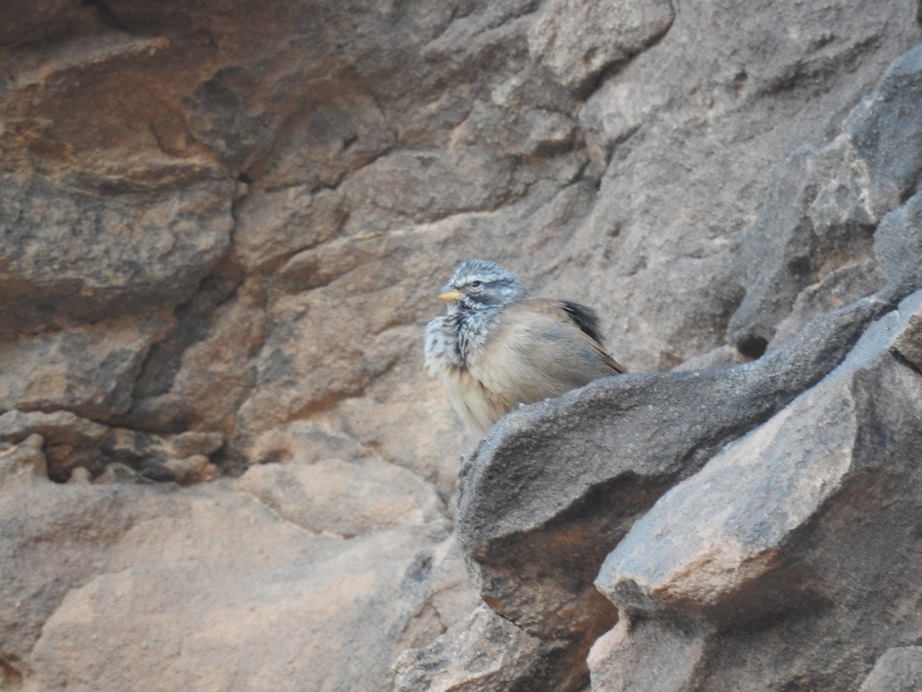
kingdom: Animalia
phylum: Chordata
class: Aves
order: Passeriformes
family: Emberizidae
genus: Emberiza
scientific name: Emberiza sahari
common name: House bunting
